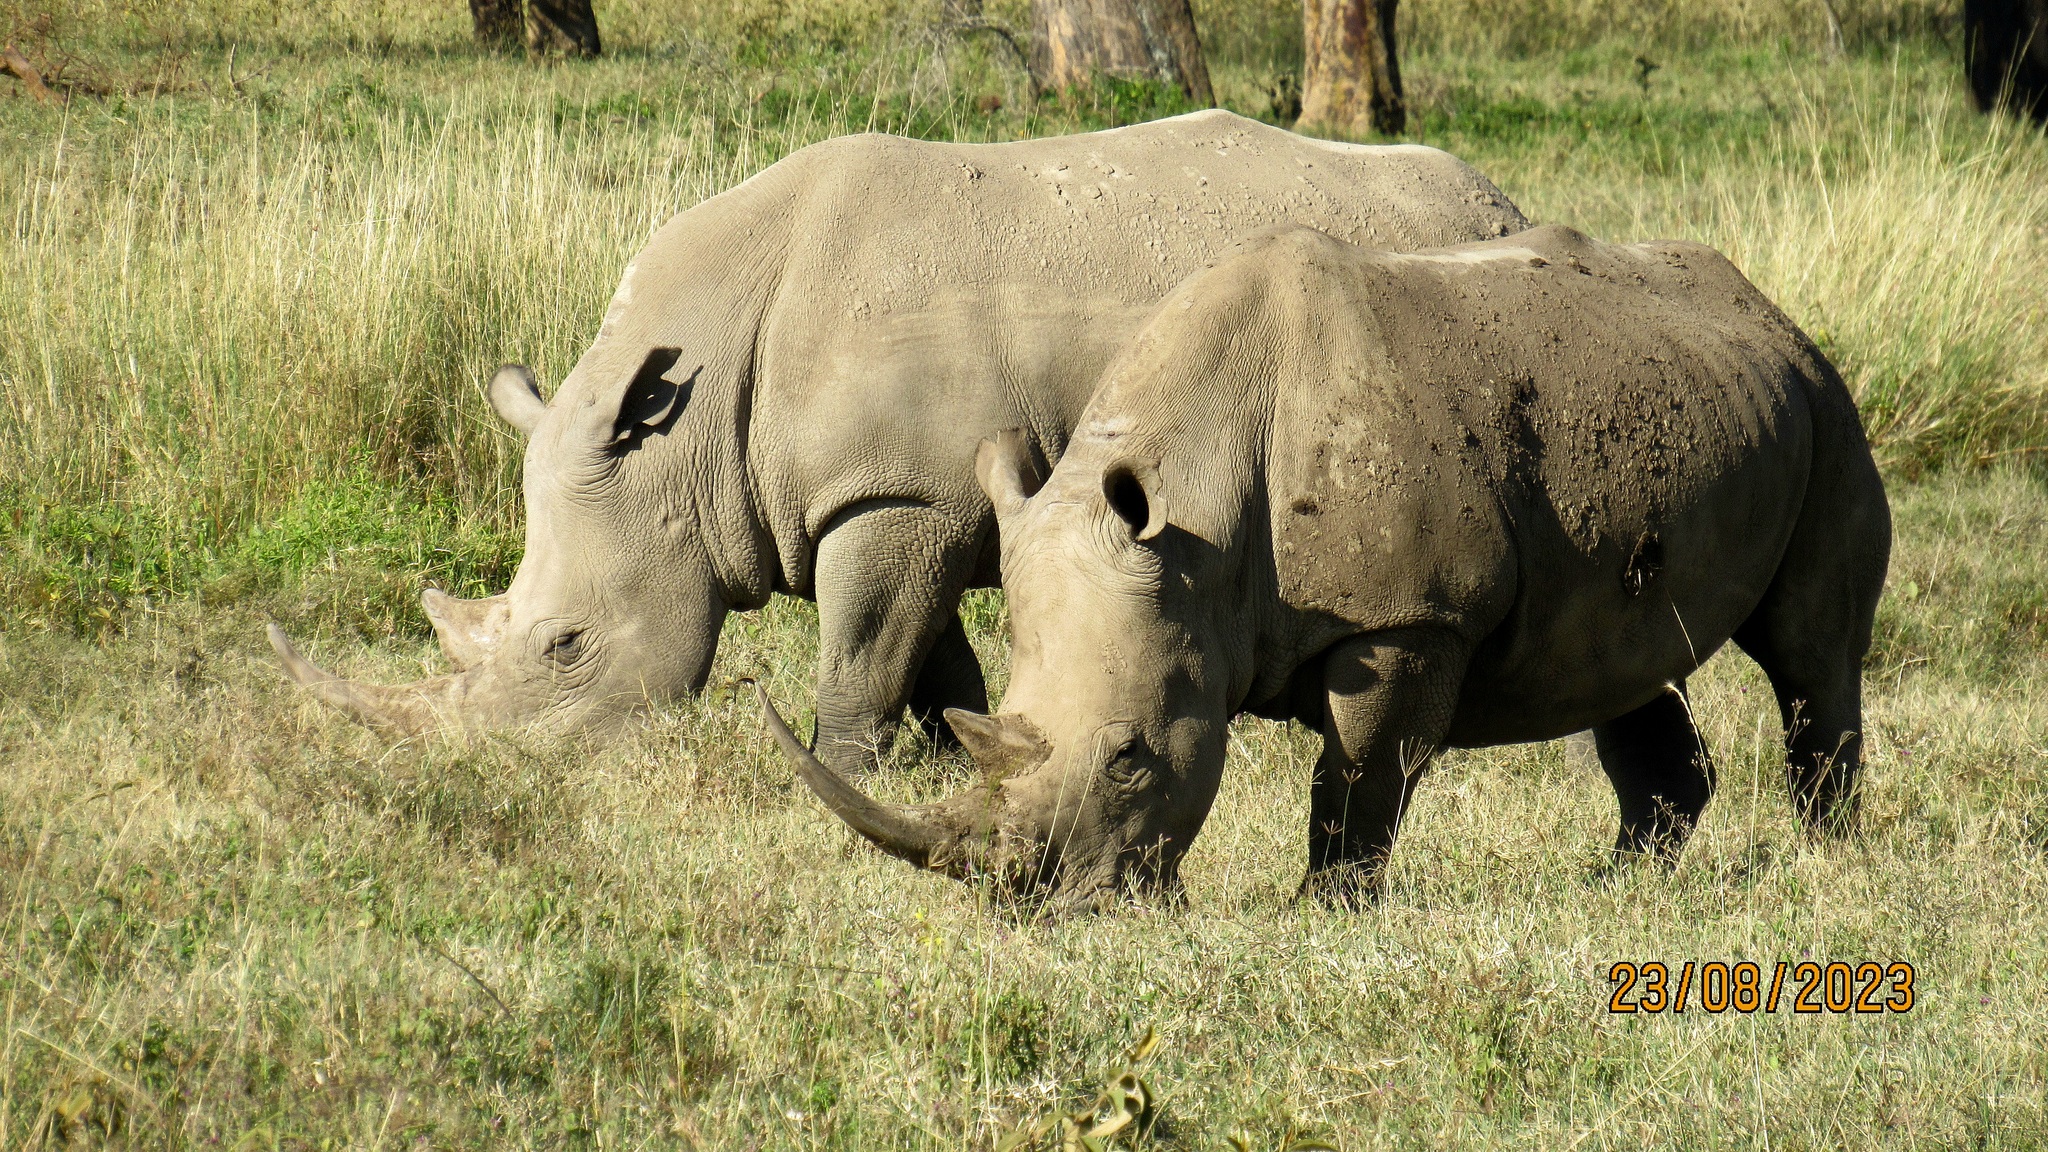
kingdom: Animalia
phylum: Chordata
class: Mammalia
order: Perissodactyla
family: Rhinocerotidae
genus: Ceratotherium
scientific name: Ceratotherium simum
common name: White rhinoceros
